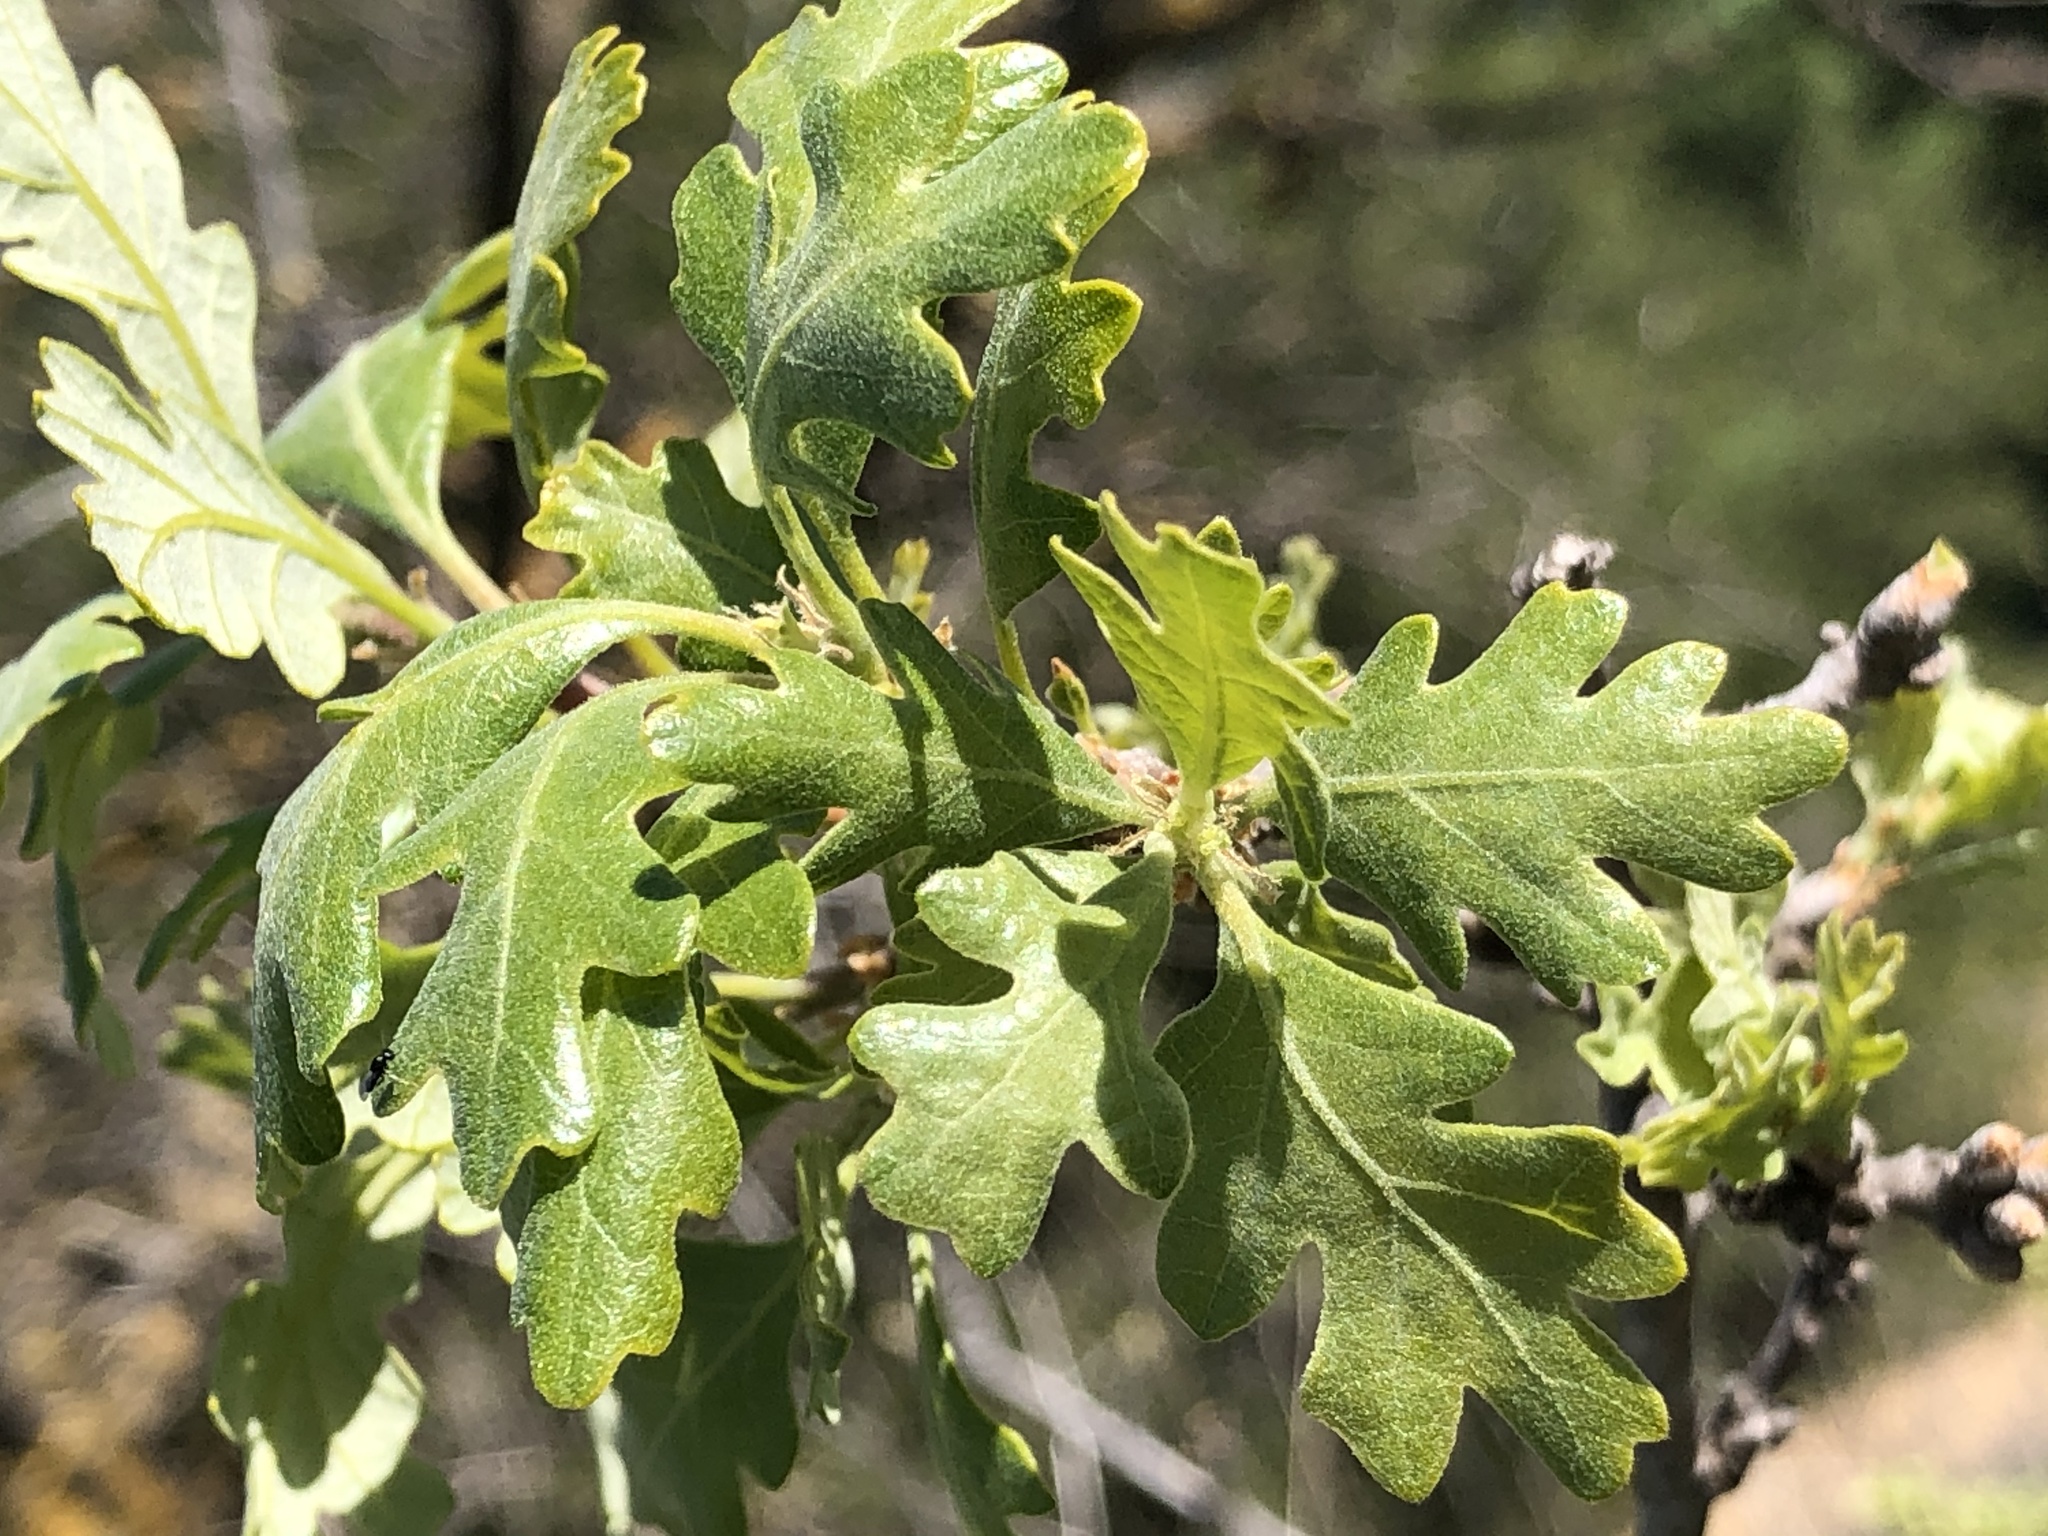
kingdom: Plantae
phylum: Tracheophyta
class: Magnoliopsida
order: Fagales
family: Fagaceae
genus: Quercus
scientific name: Quercus lobata
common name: Valley oak
